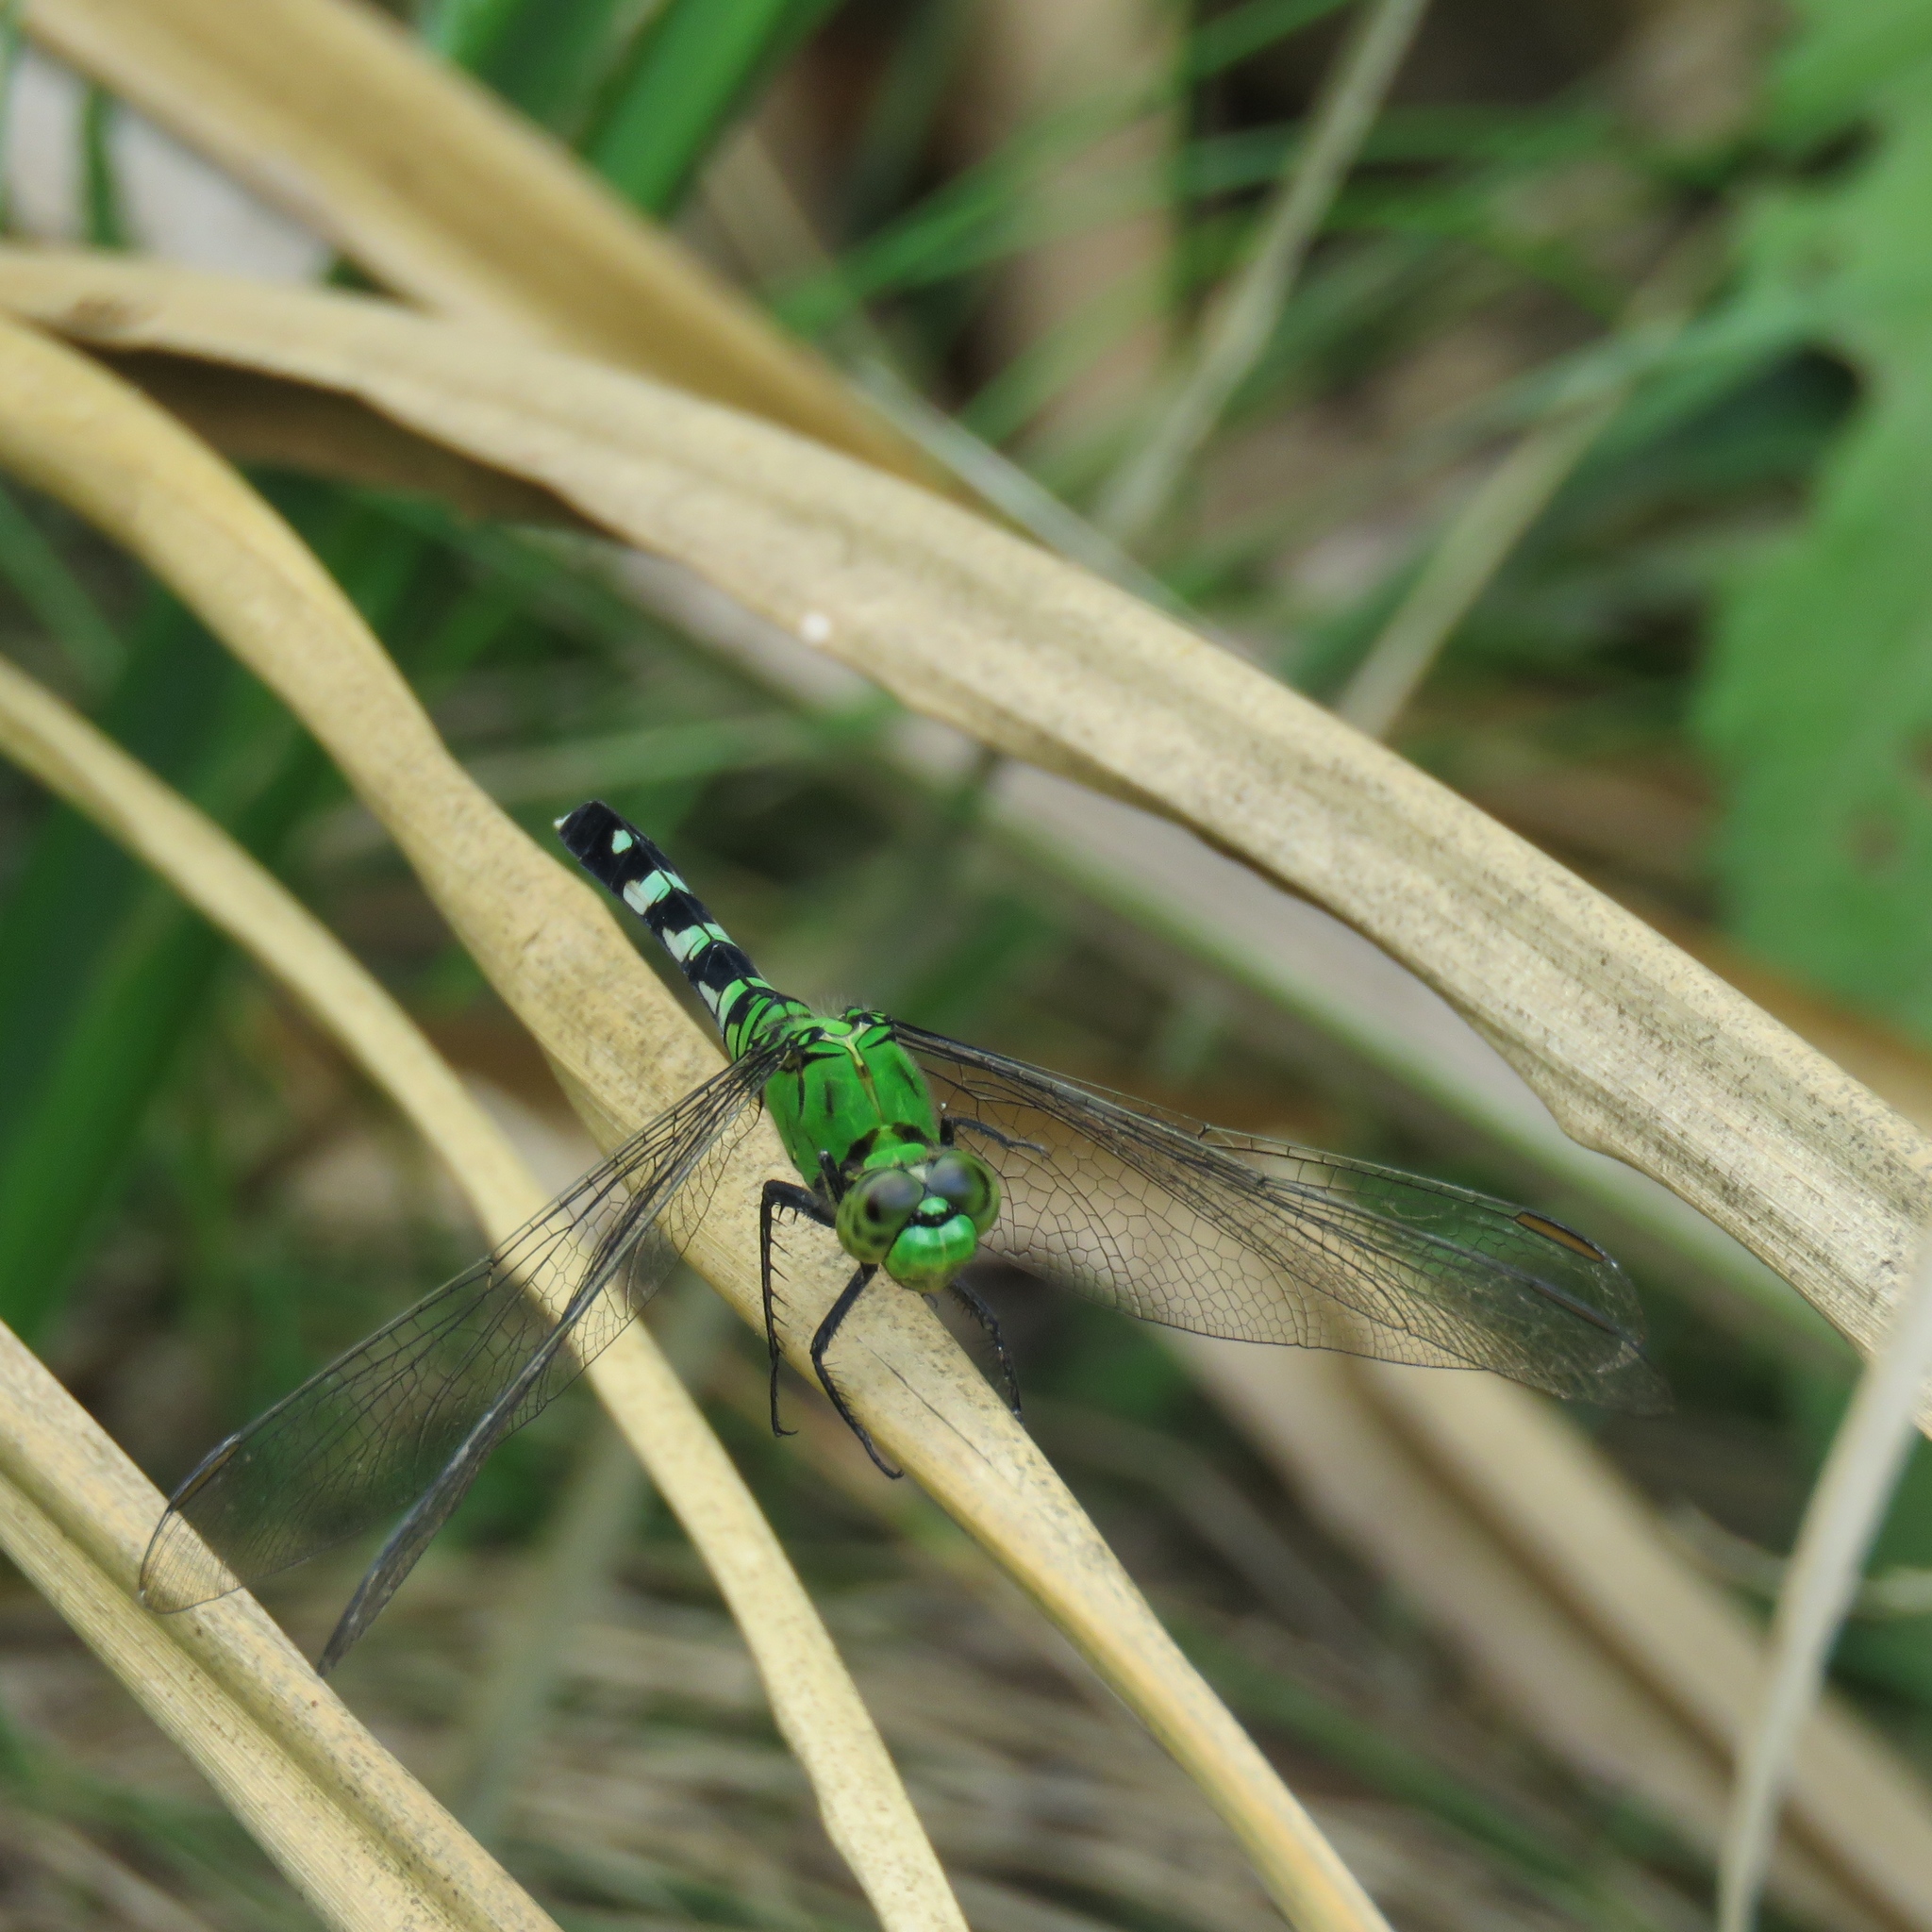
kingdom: Animalia
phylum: Arthropoda
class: Insecta
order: Odonata
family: Libellulidae
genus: Erythemis
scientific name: Erythemis simplicicollis
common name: Eastern pondhawk
